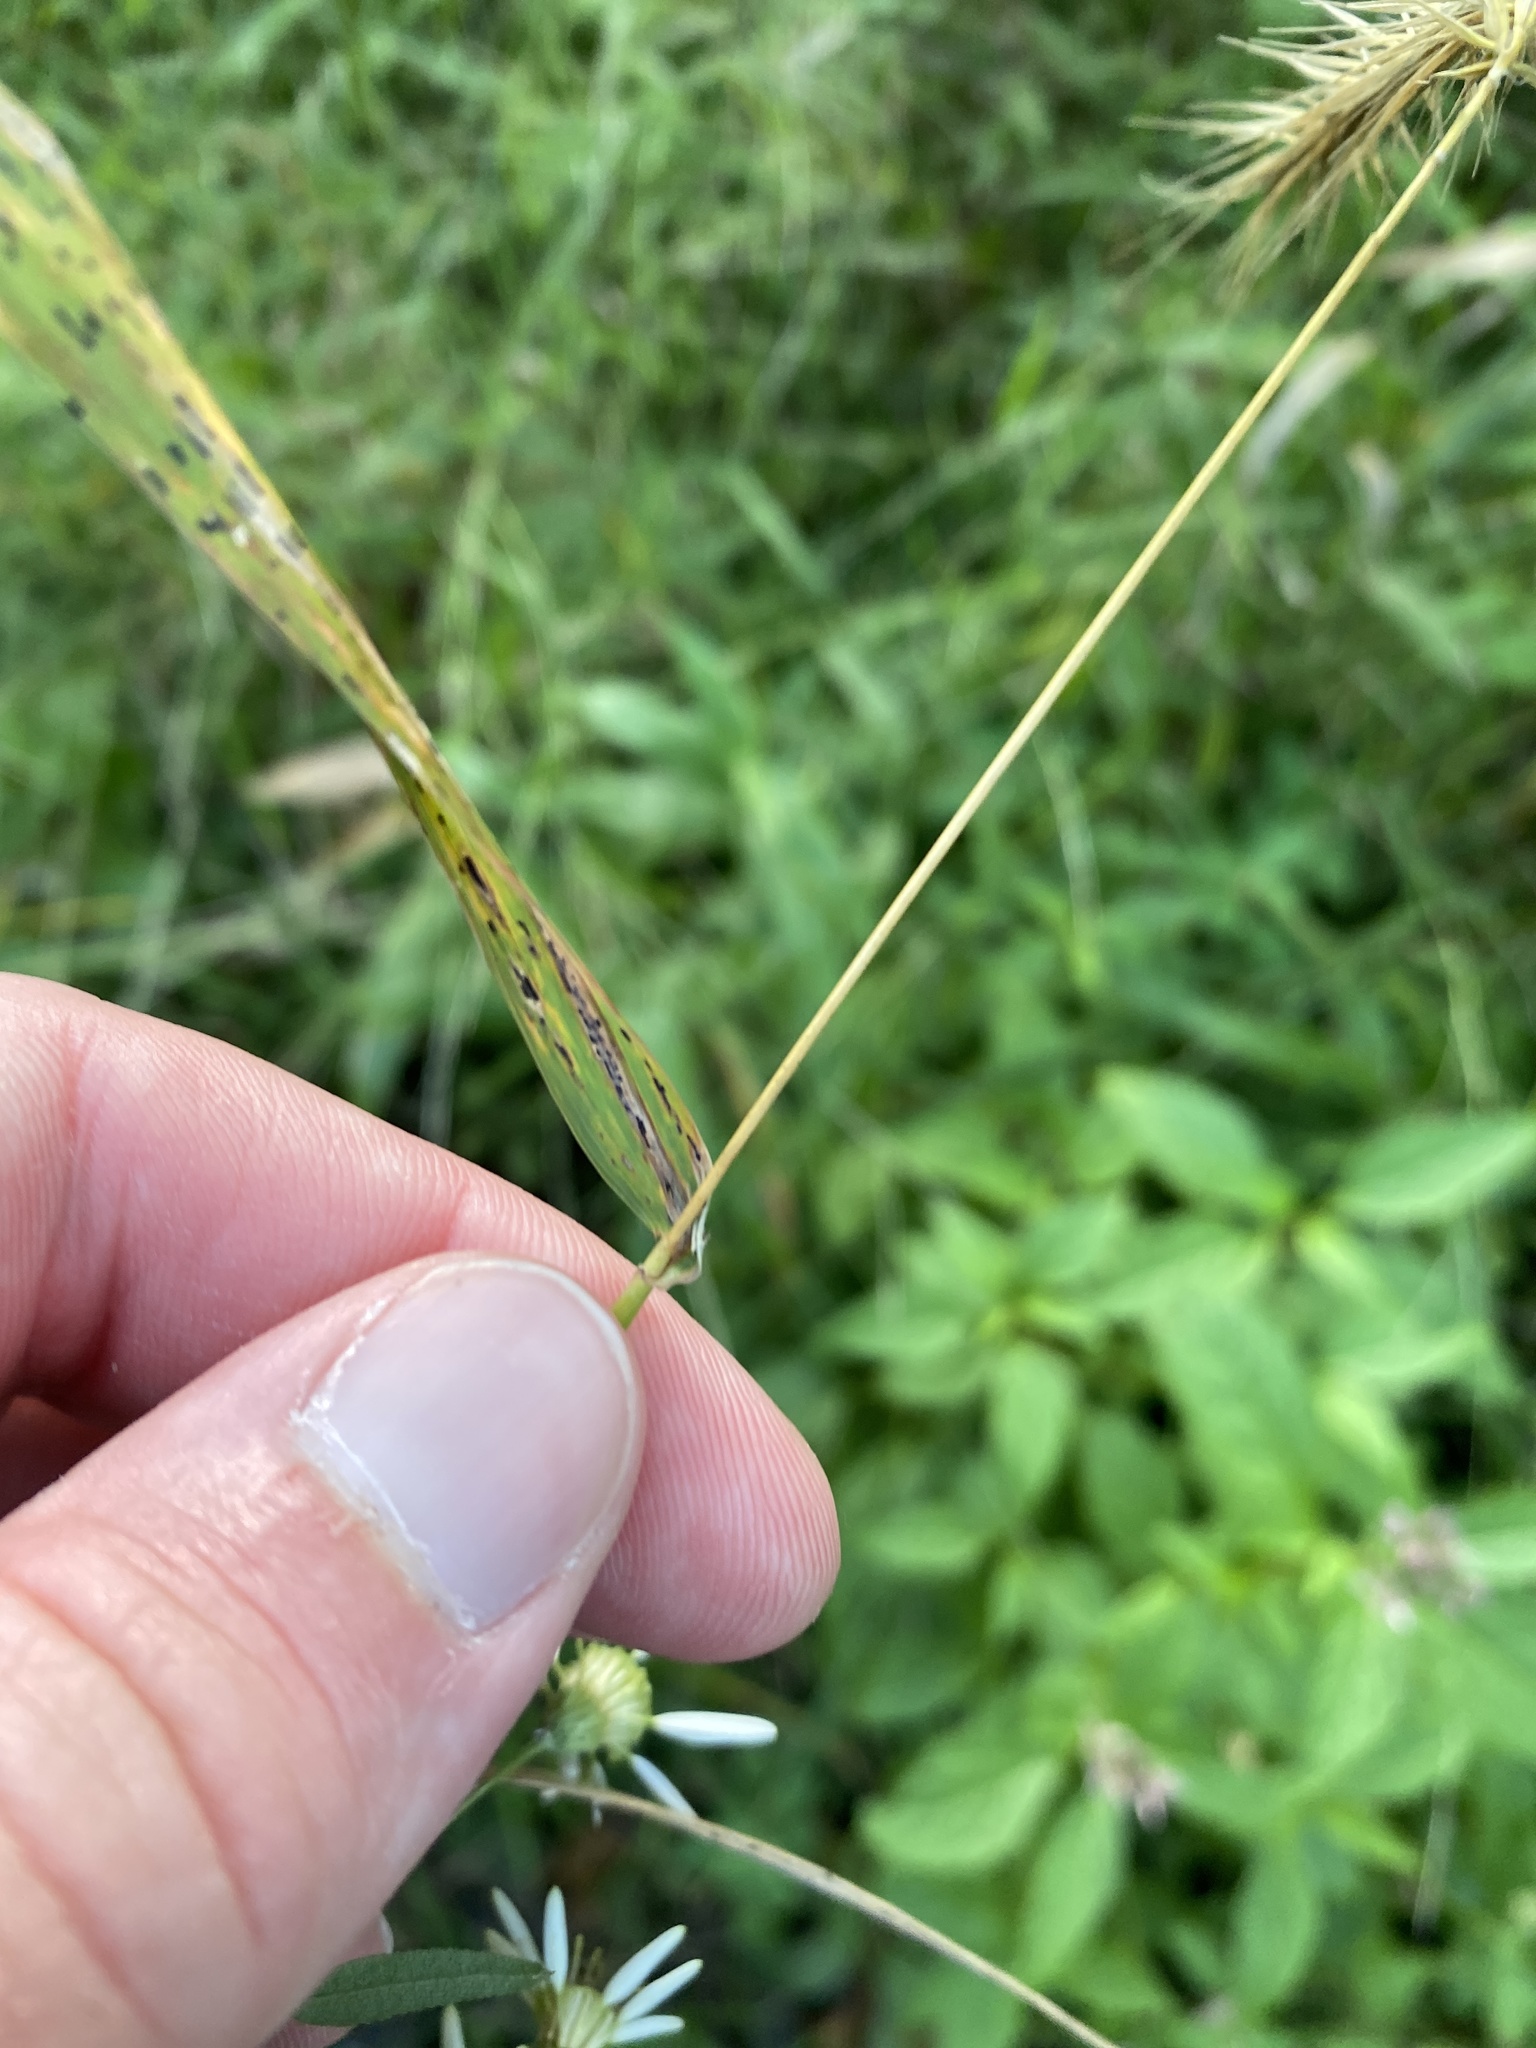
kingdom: Plantae
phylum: Tracheophyta
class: Liliopsida
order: Poales
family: Poaceae
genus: Elymus
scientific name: Elymus riparius
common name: Eastern riverbank wild rye
